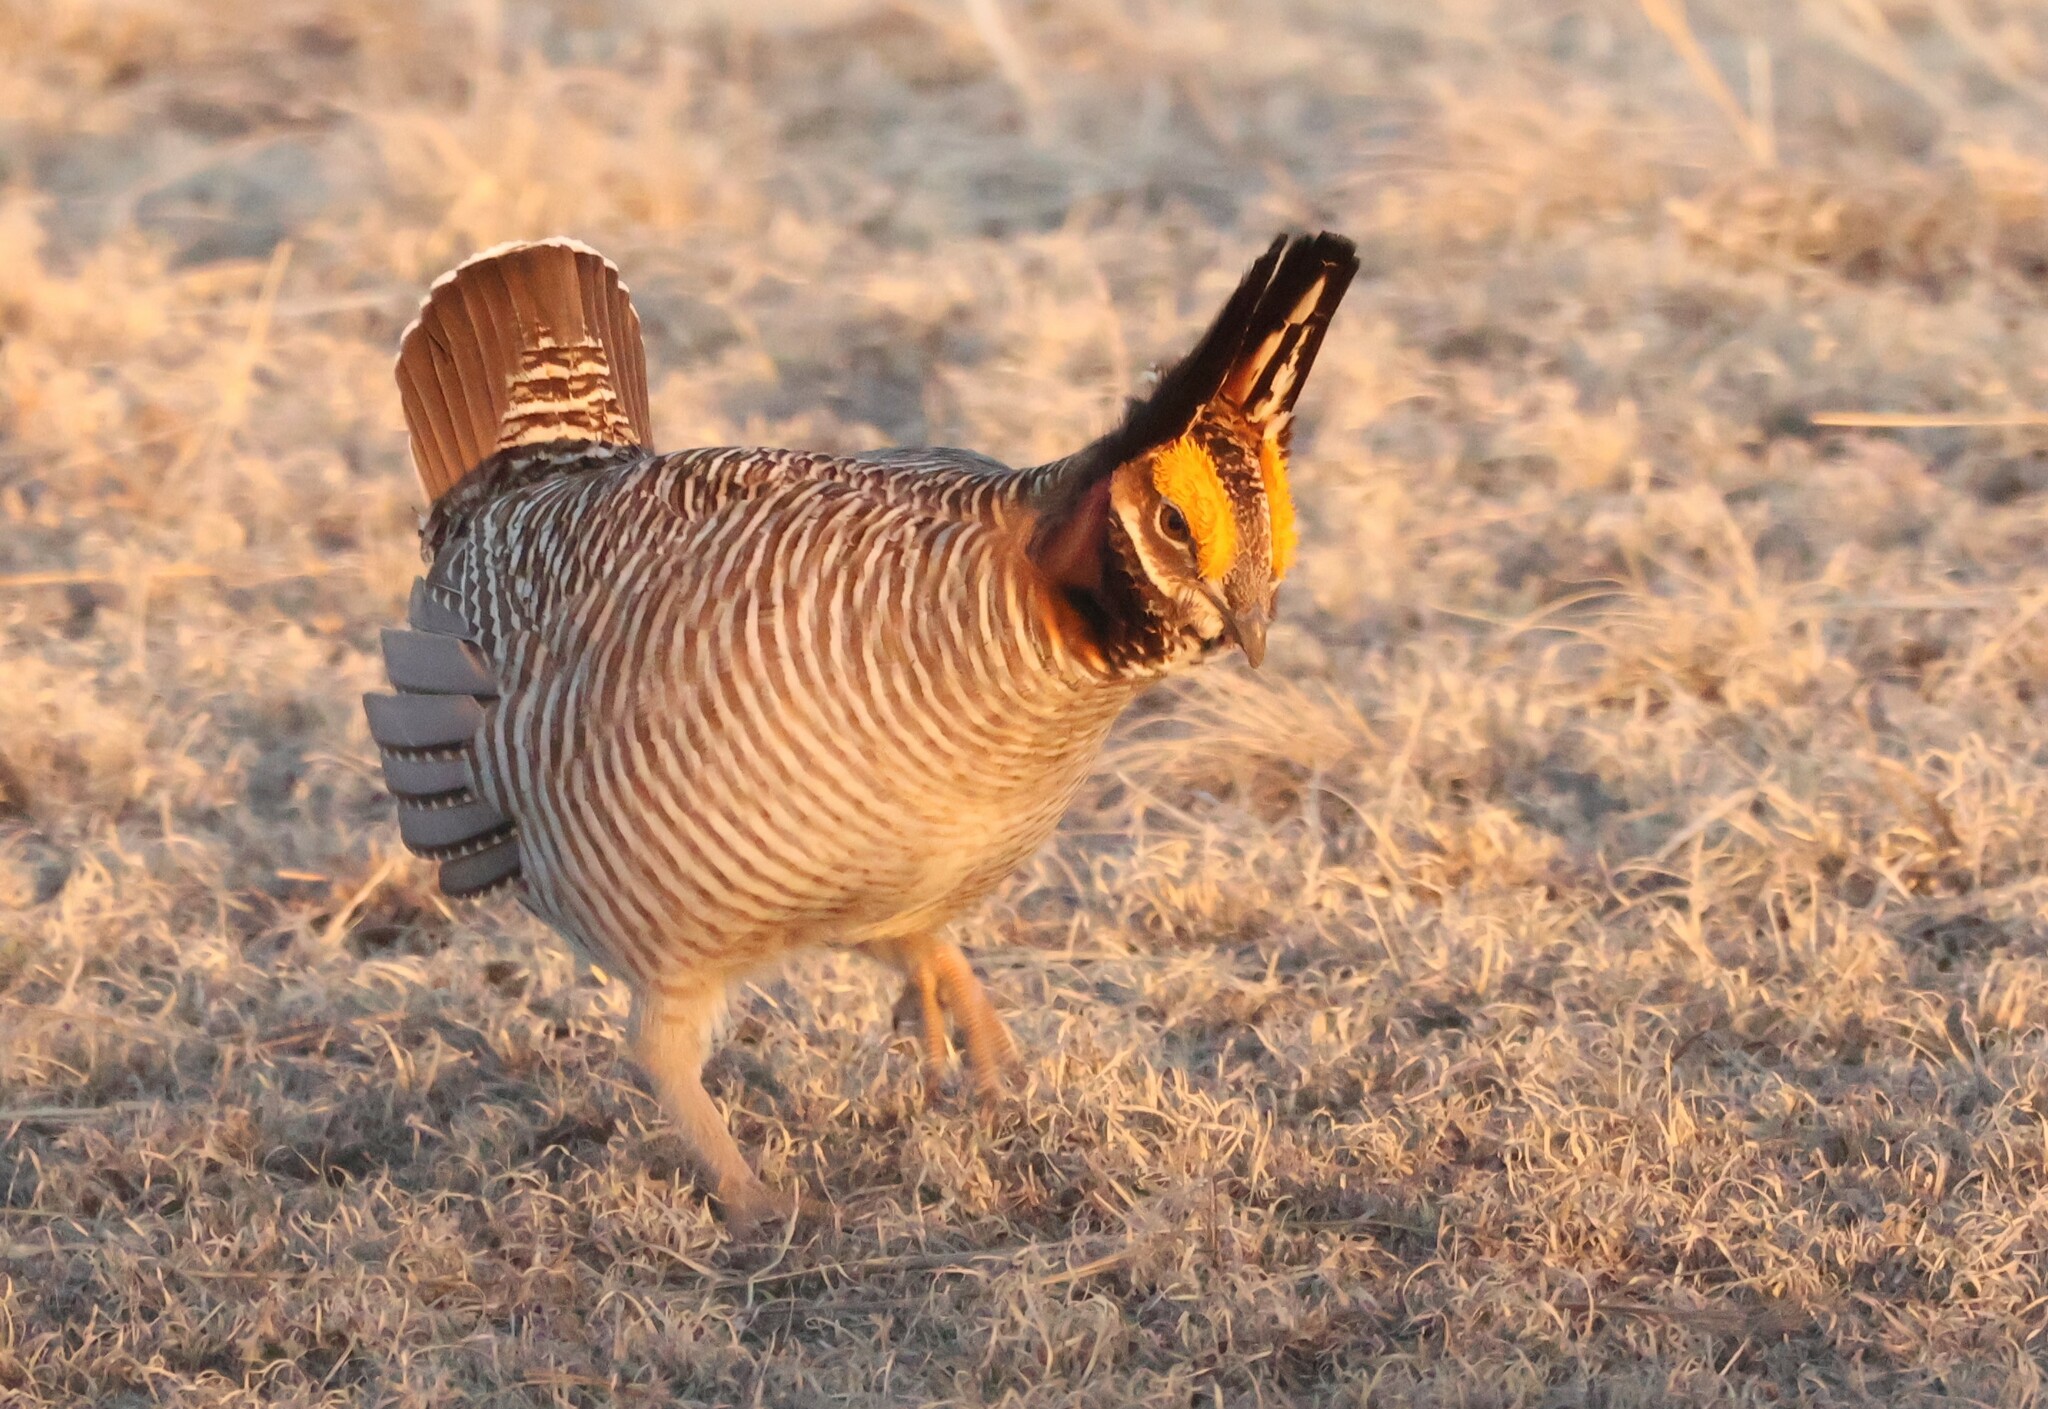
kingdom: Animalia
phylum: Chordata
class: Aves
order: Galliformes
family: Phasianidae
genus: Tympanuchus
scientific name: Tympanuchus pallidicinctus
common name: Lesser prairie chicken
